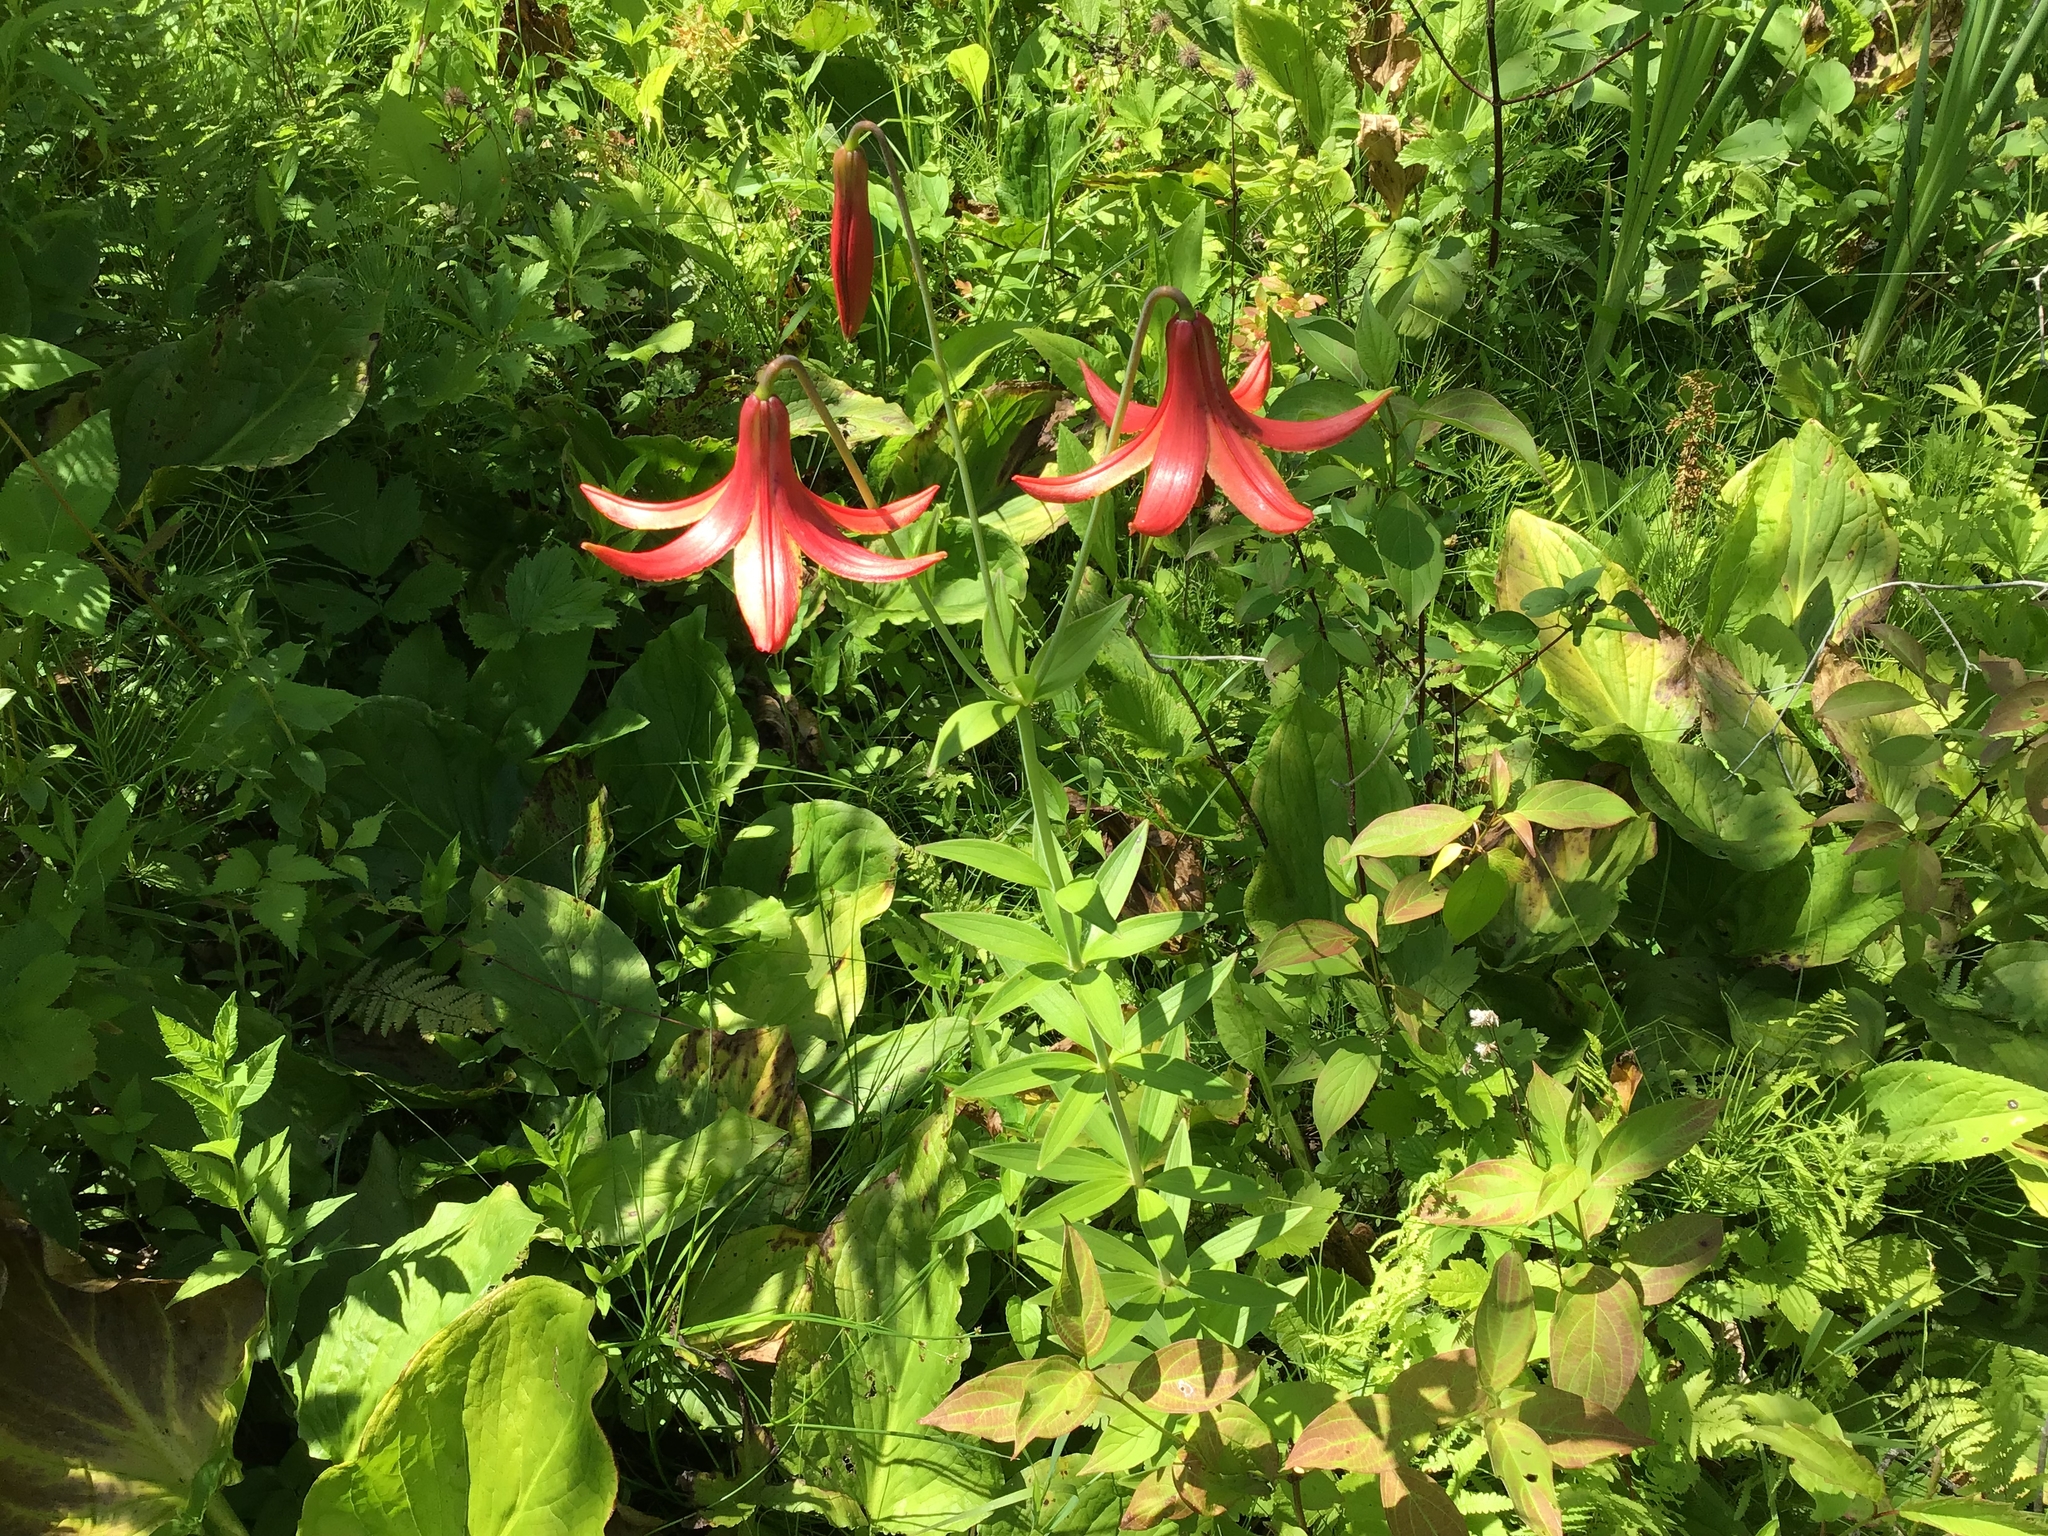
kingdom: Plantae
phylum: Tracheophyta
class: Liliopsida
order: Liliales
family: Liliaceae
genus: Lilium
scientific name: Lilium canadense
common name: Canada lily
